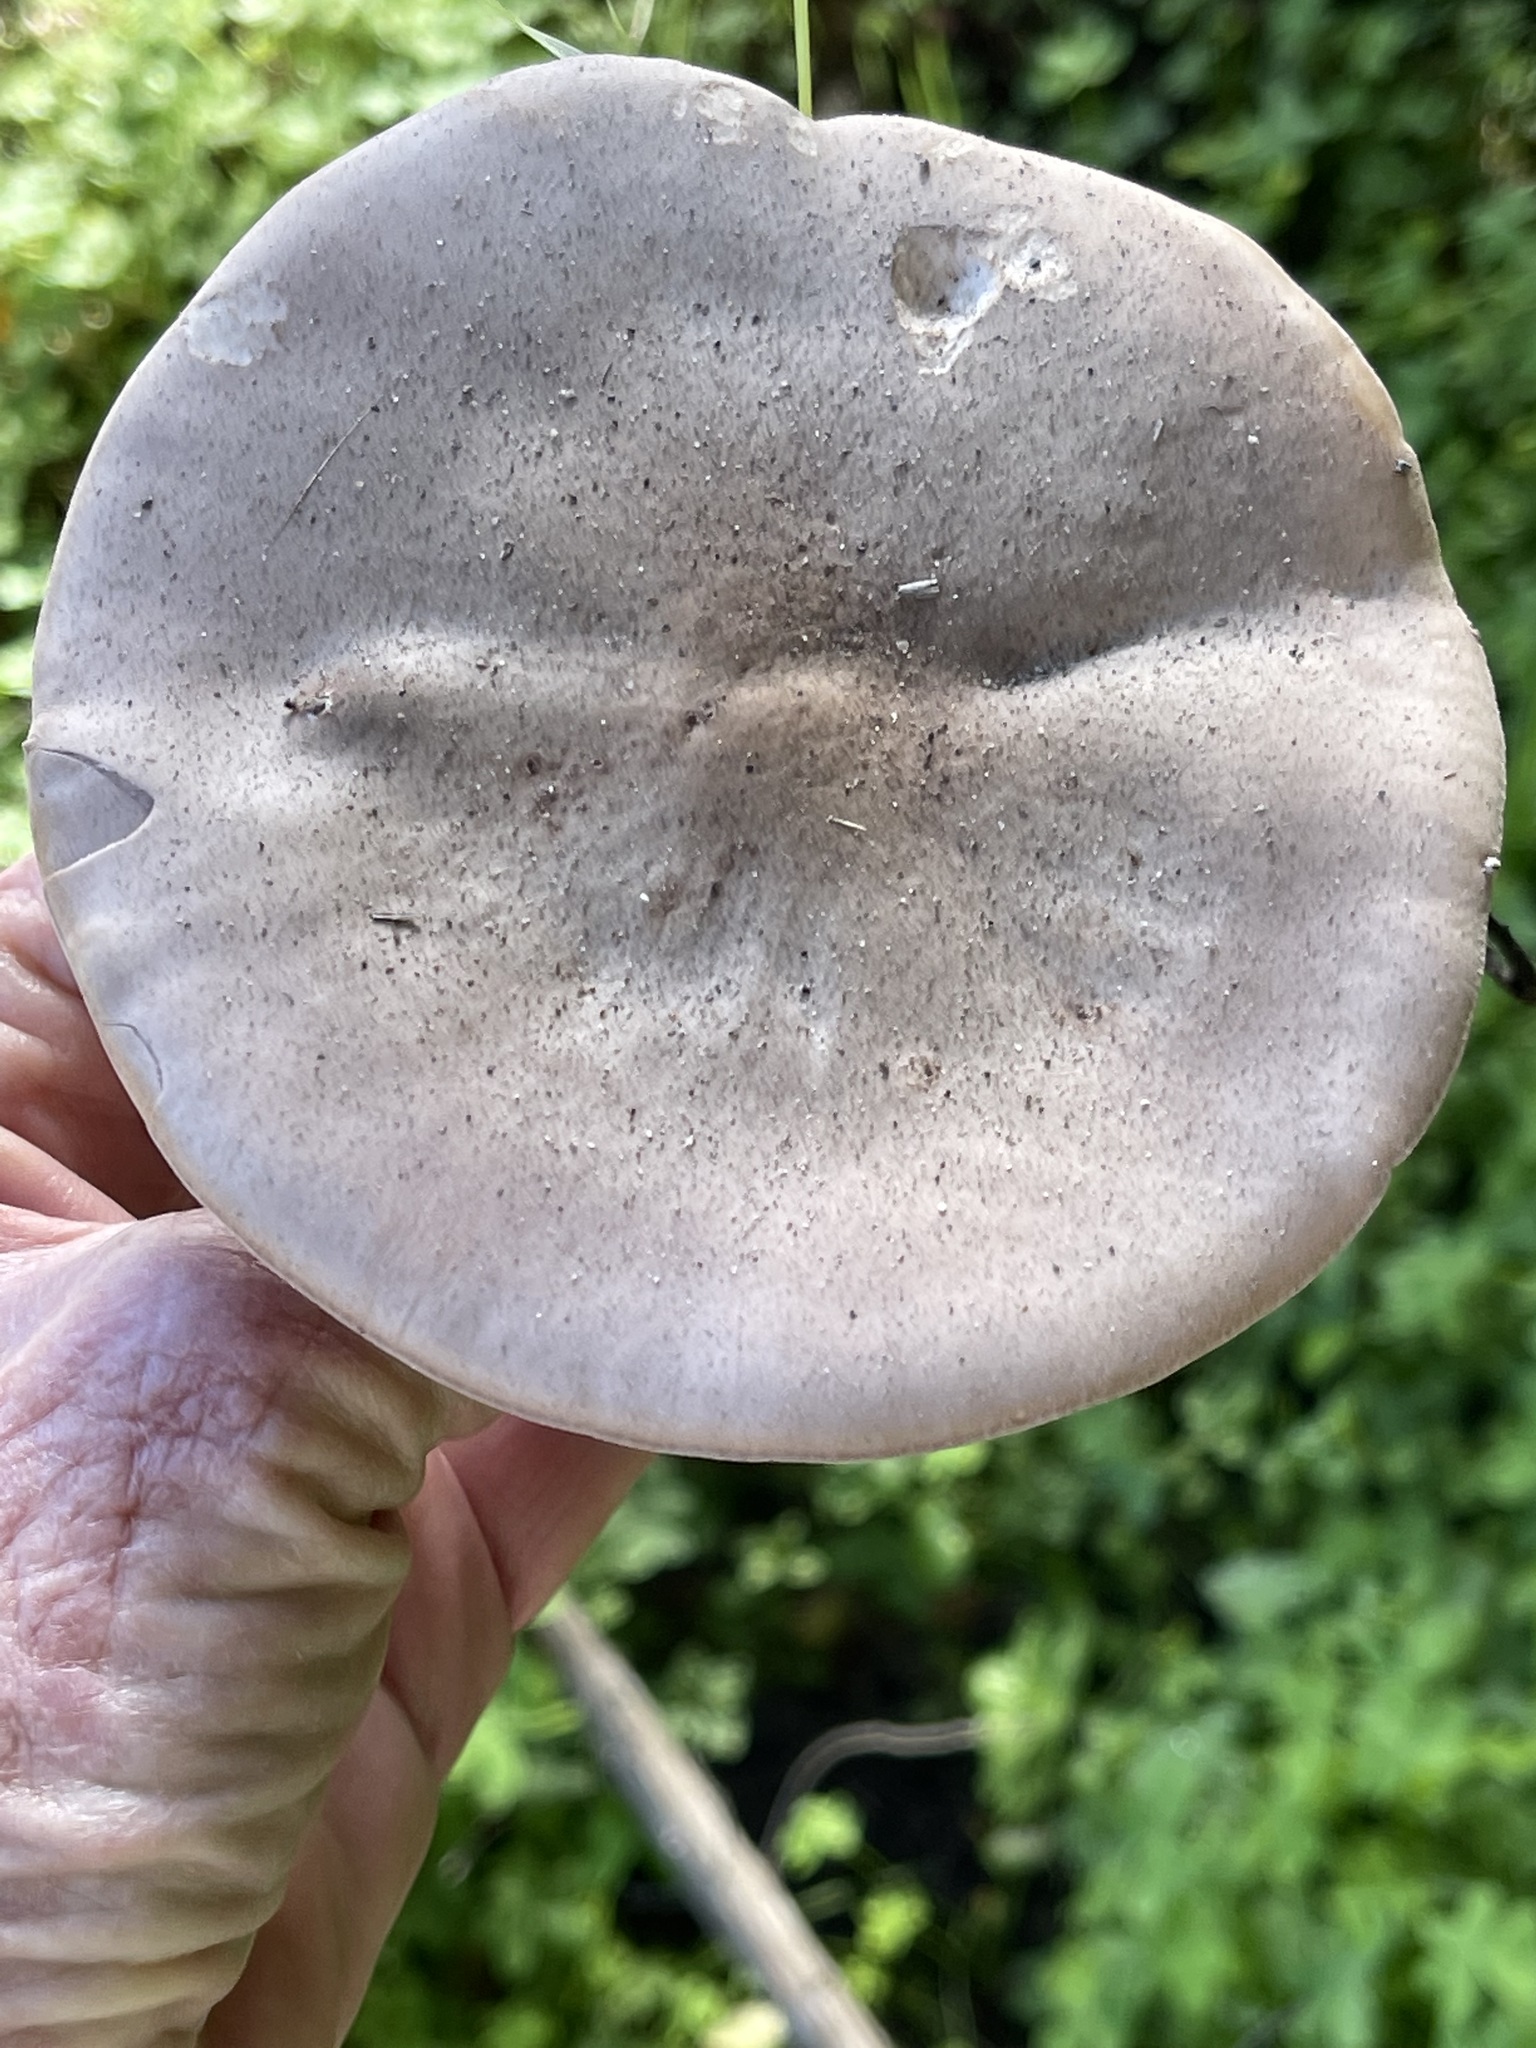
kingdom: Fungi
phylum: Basidiomycota
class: Agaricomycetes
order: Agaricales
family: Tricholomataceae
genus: Collybia
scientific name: Collybia
